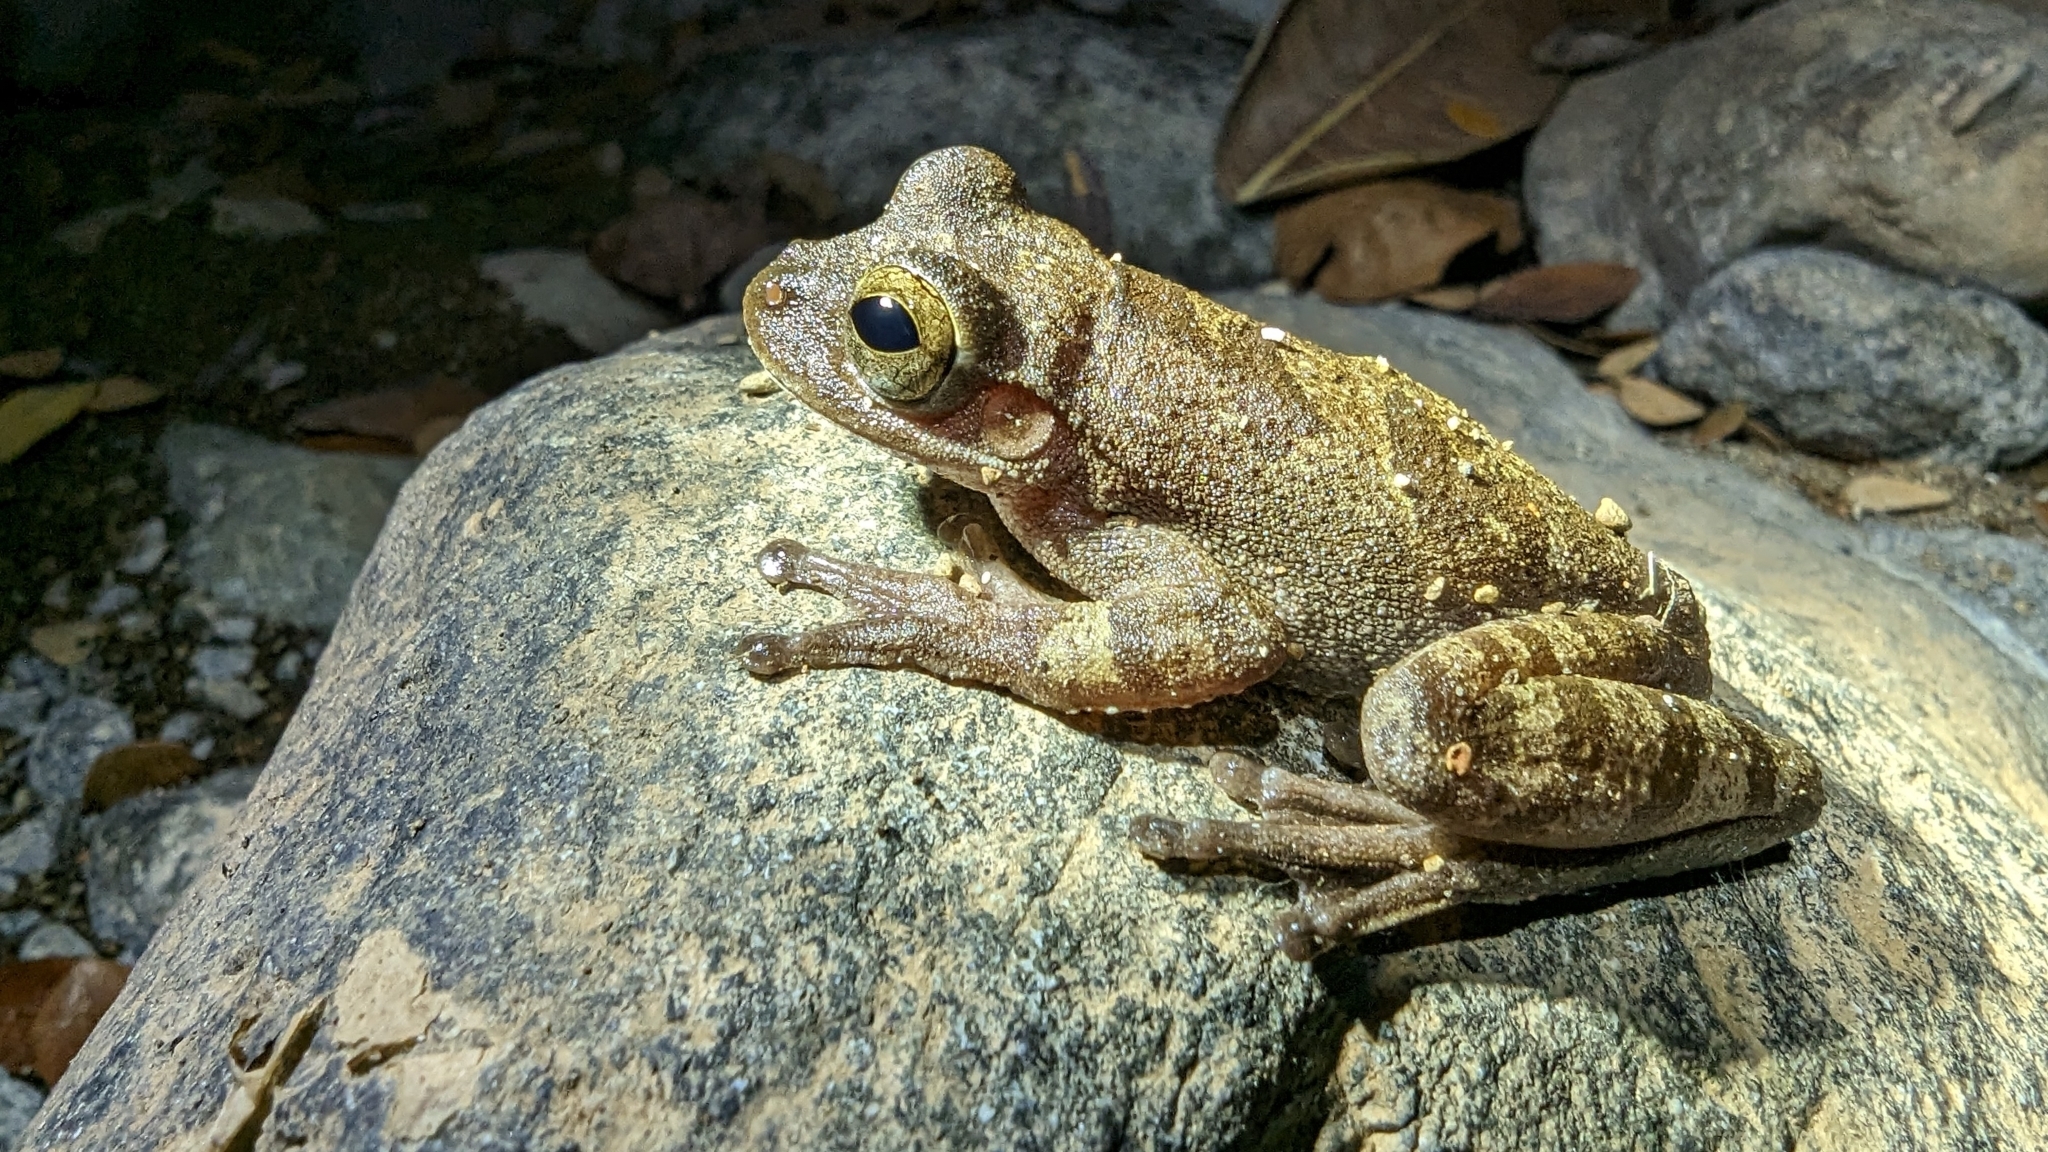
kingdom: Animalia
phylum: Chordata
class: Amphibia
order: Anura
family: Hylidae
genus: Smilisca
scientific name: Smilisca sordida
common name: Veragua cross-banded treefrog
